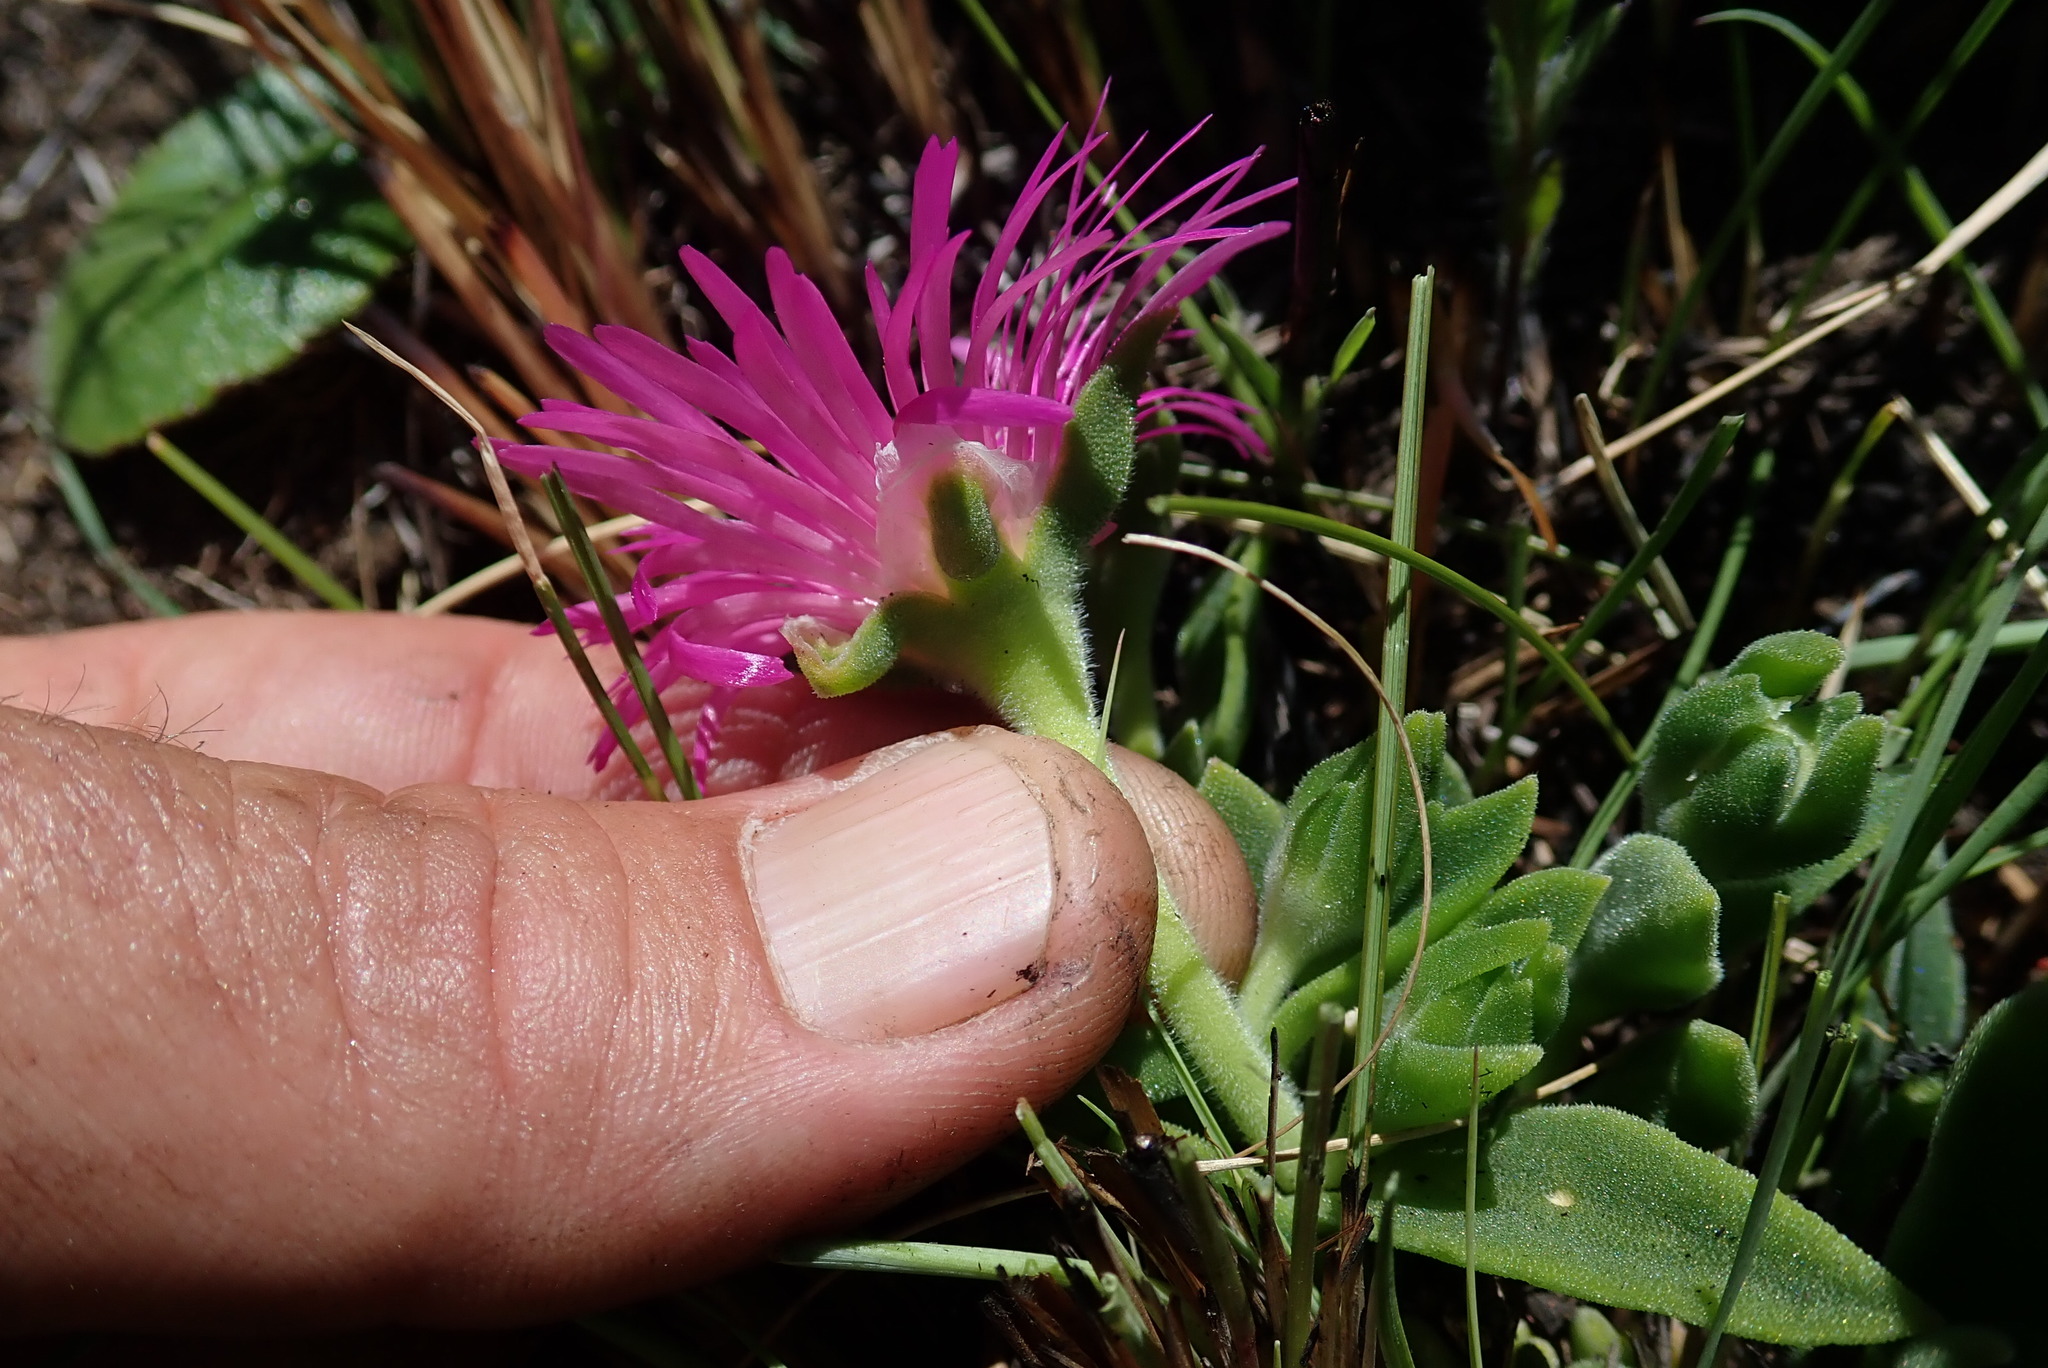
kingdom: Plantae
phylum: Tracheophyta
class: Magnoliopsida
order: Caryophyllales
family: Aizoaceae
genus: Delosperma
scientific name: Delosperma sutherlandii
